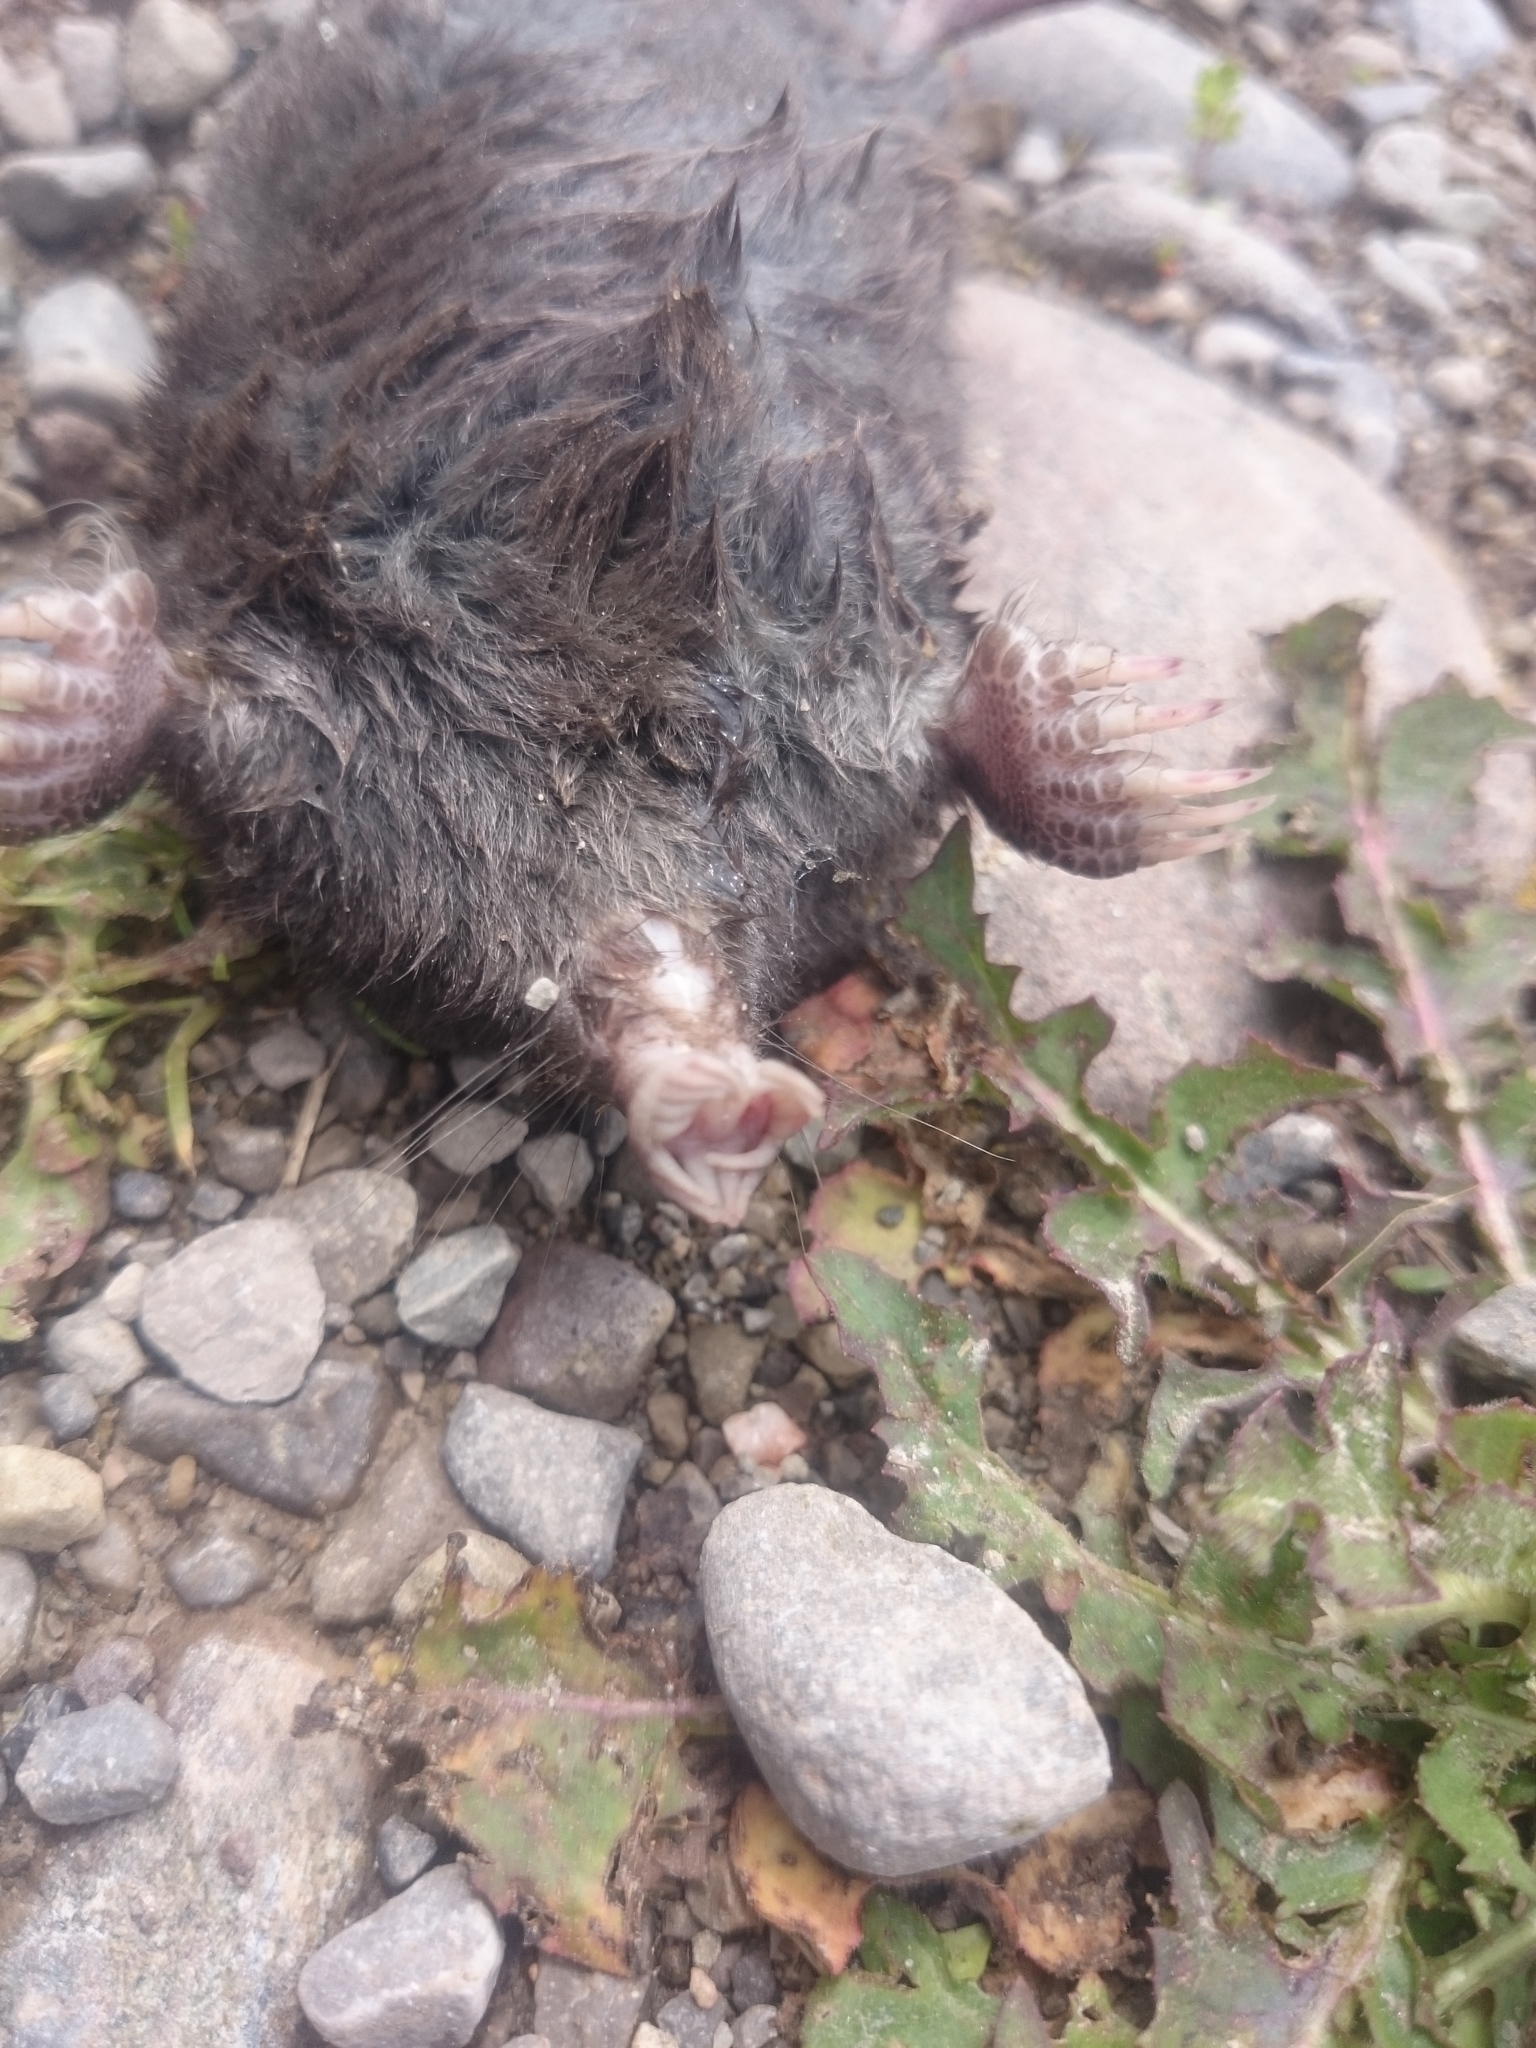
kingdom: Animalia
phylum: Chordata
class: Mammalia
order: Soricomorpha
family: Talpidae
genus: Condylura
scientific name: Condylura cristata
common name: Star-nosed mole
